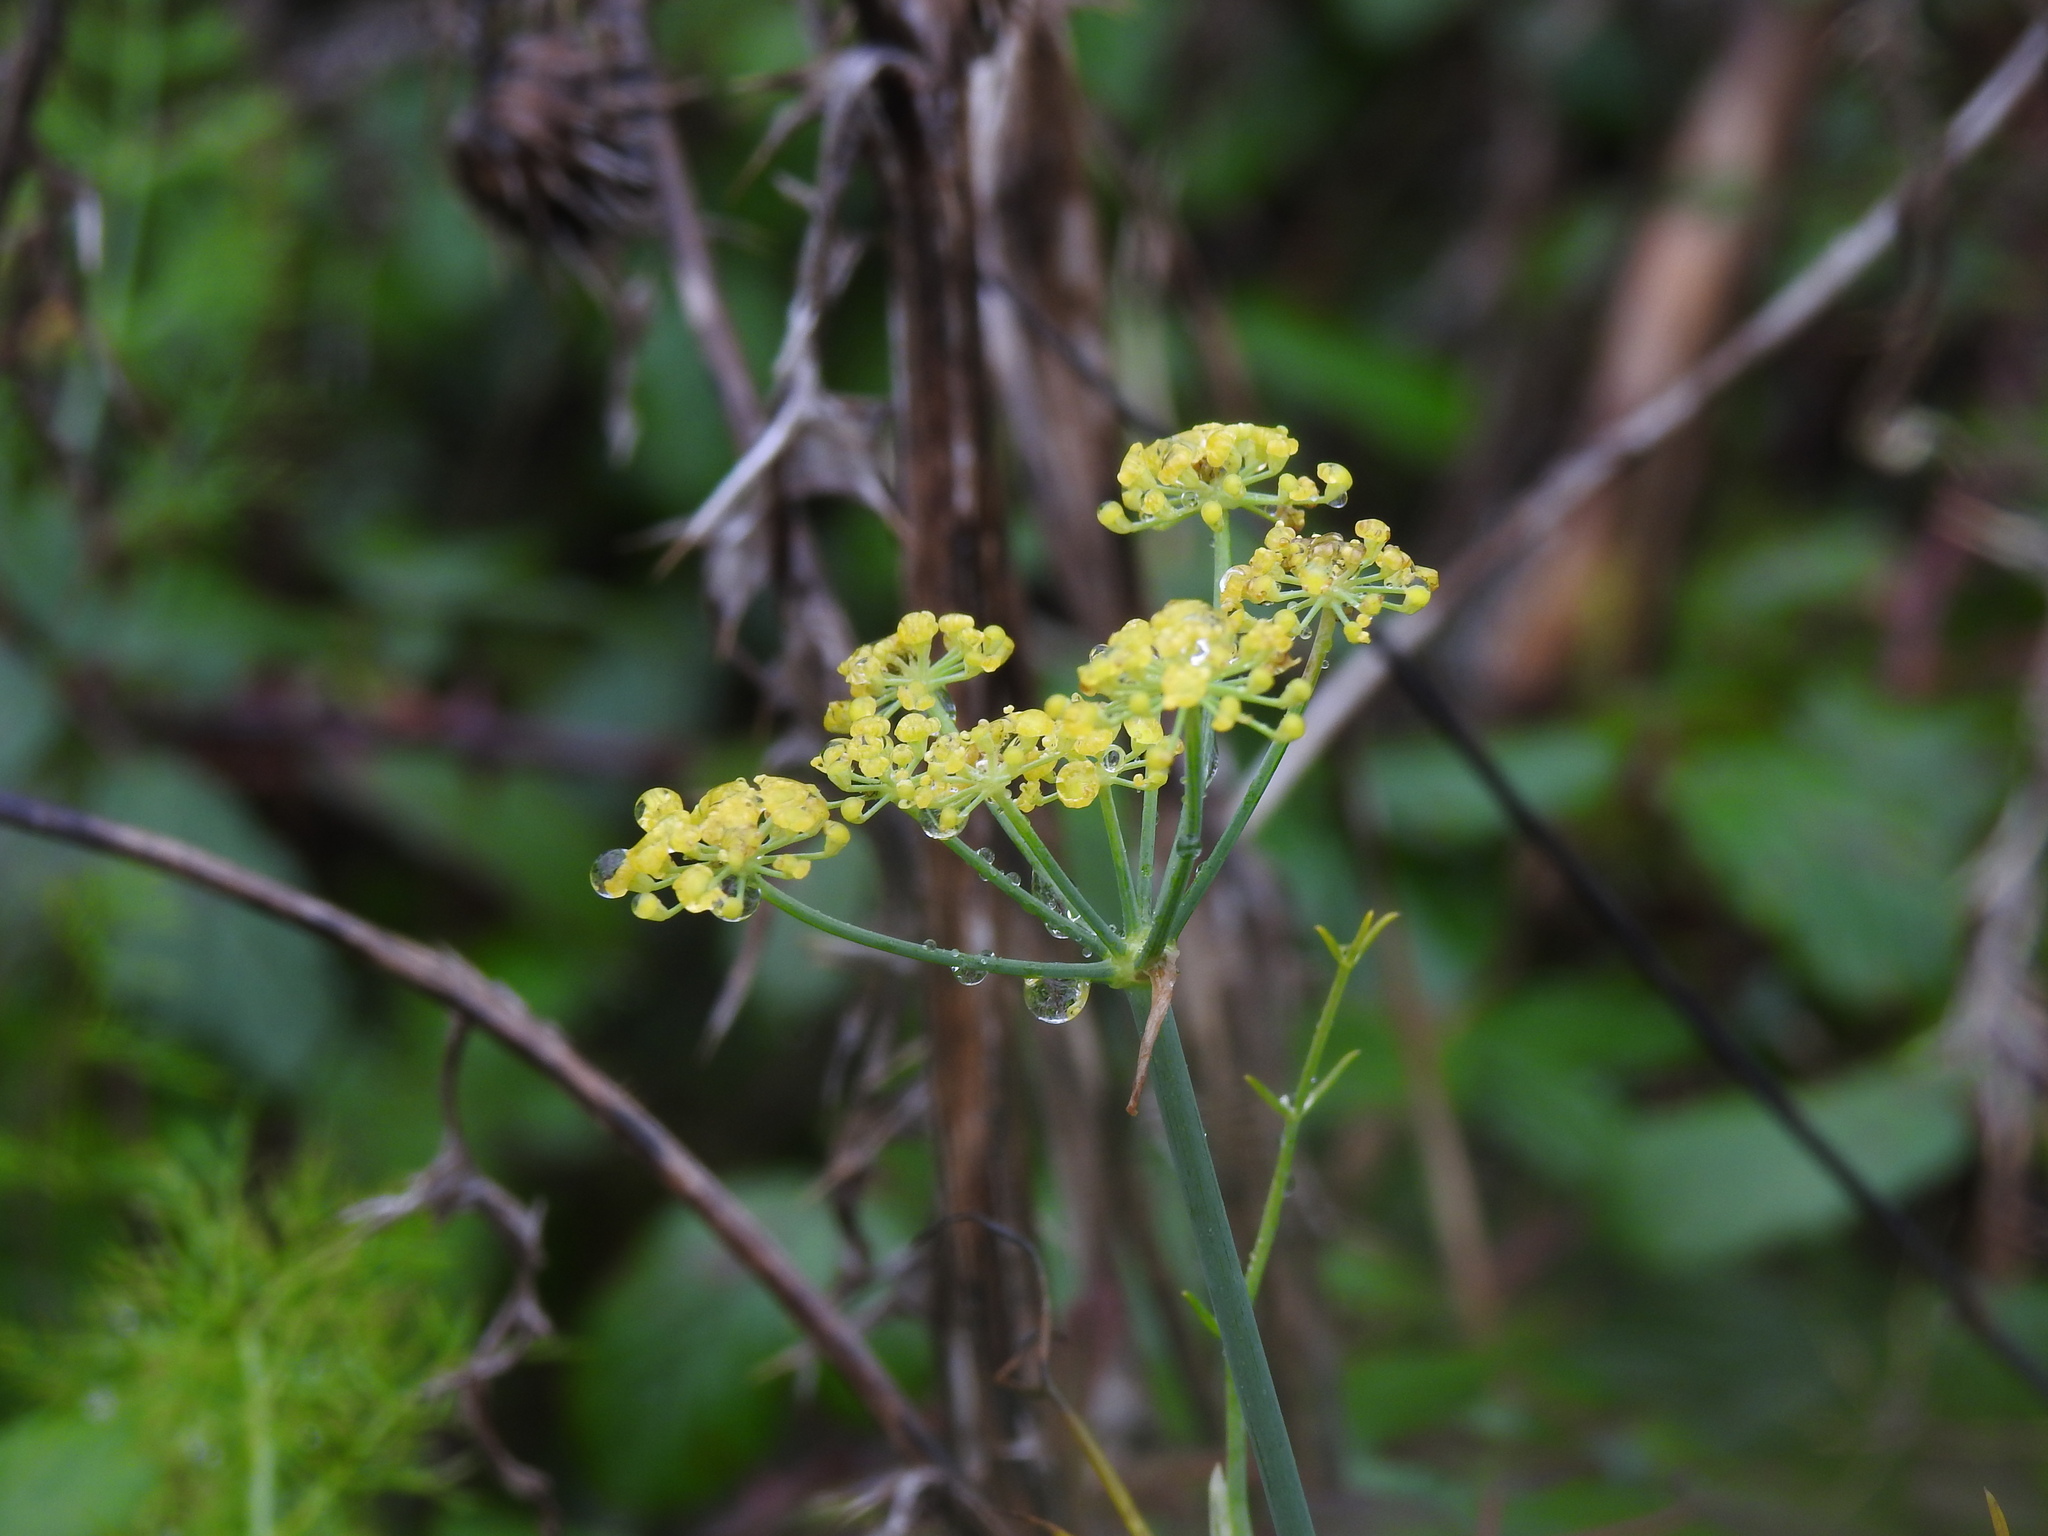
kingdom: Plantae
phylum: Tracheophyta
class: Magnoliopsida
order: Apiales
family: Apiaceae
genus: Foeniculum
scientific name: Foeniculum vulgare
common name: Fennel
